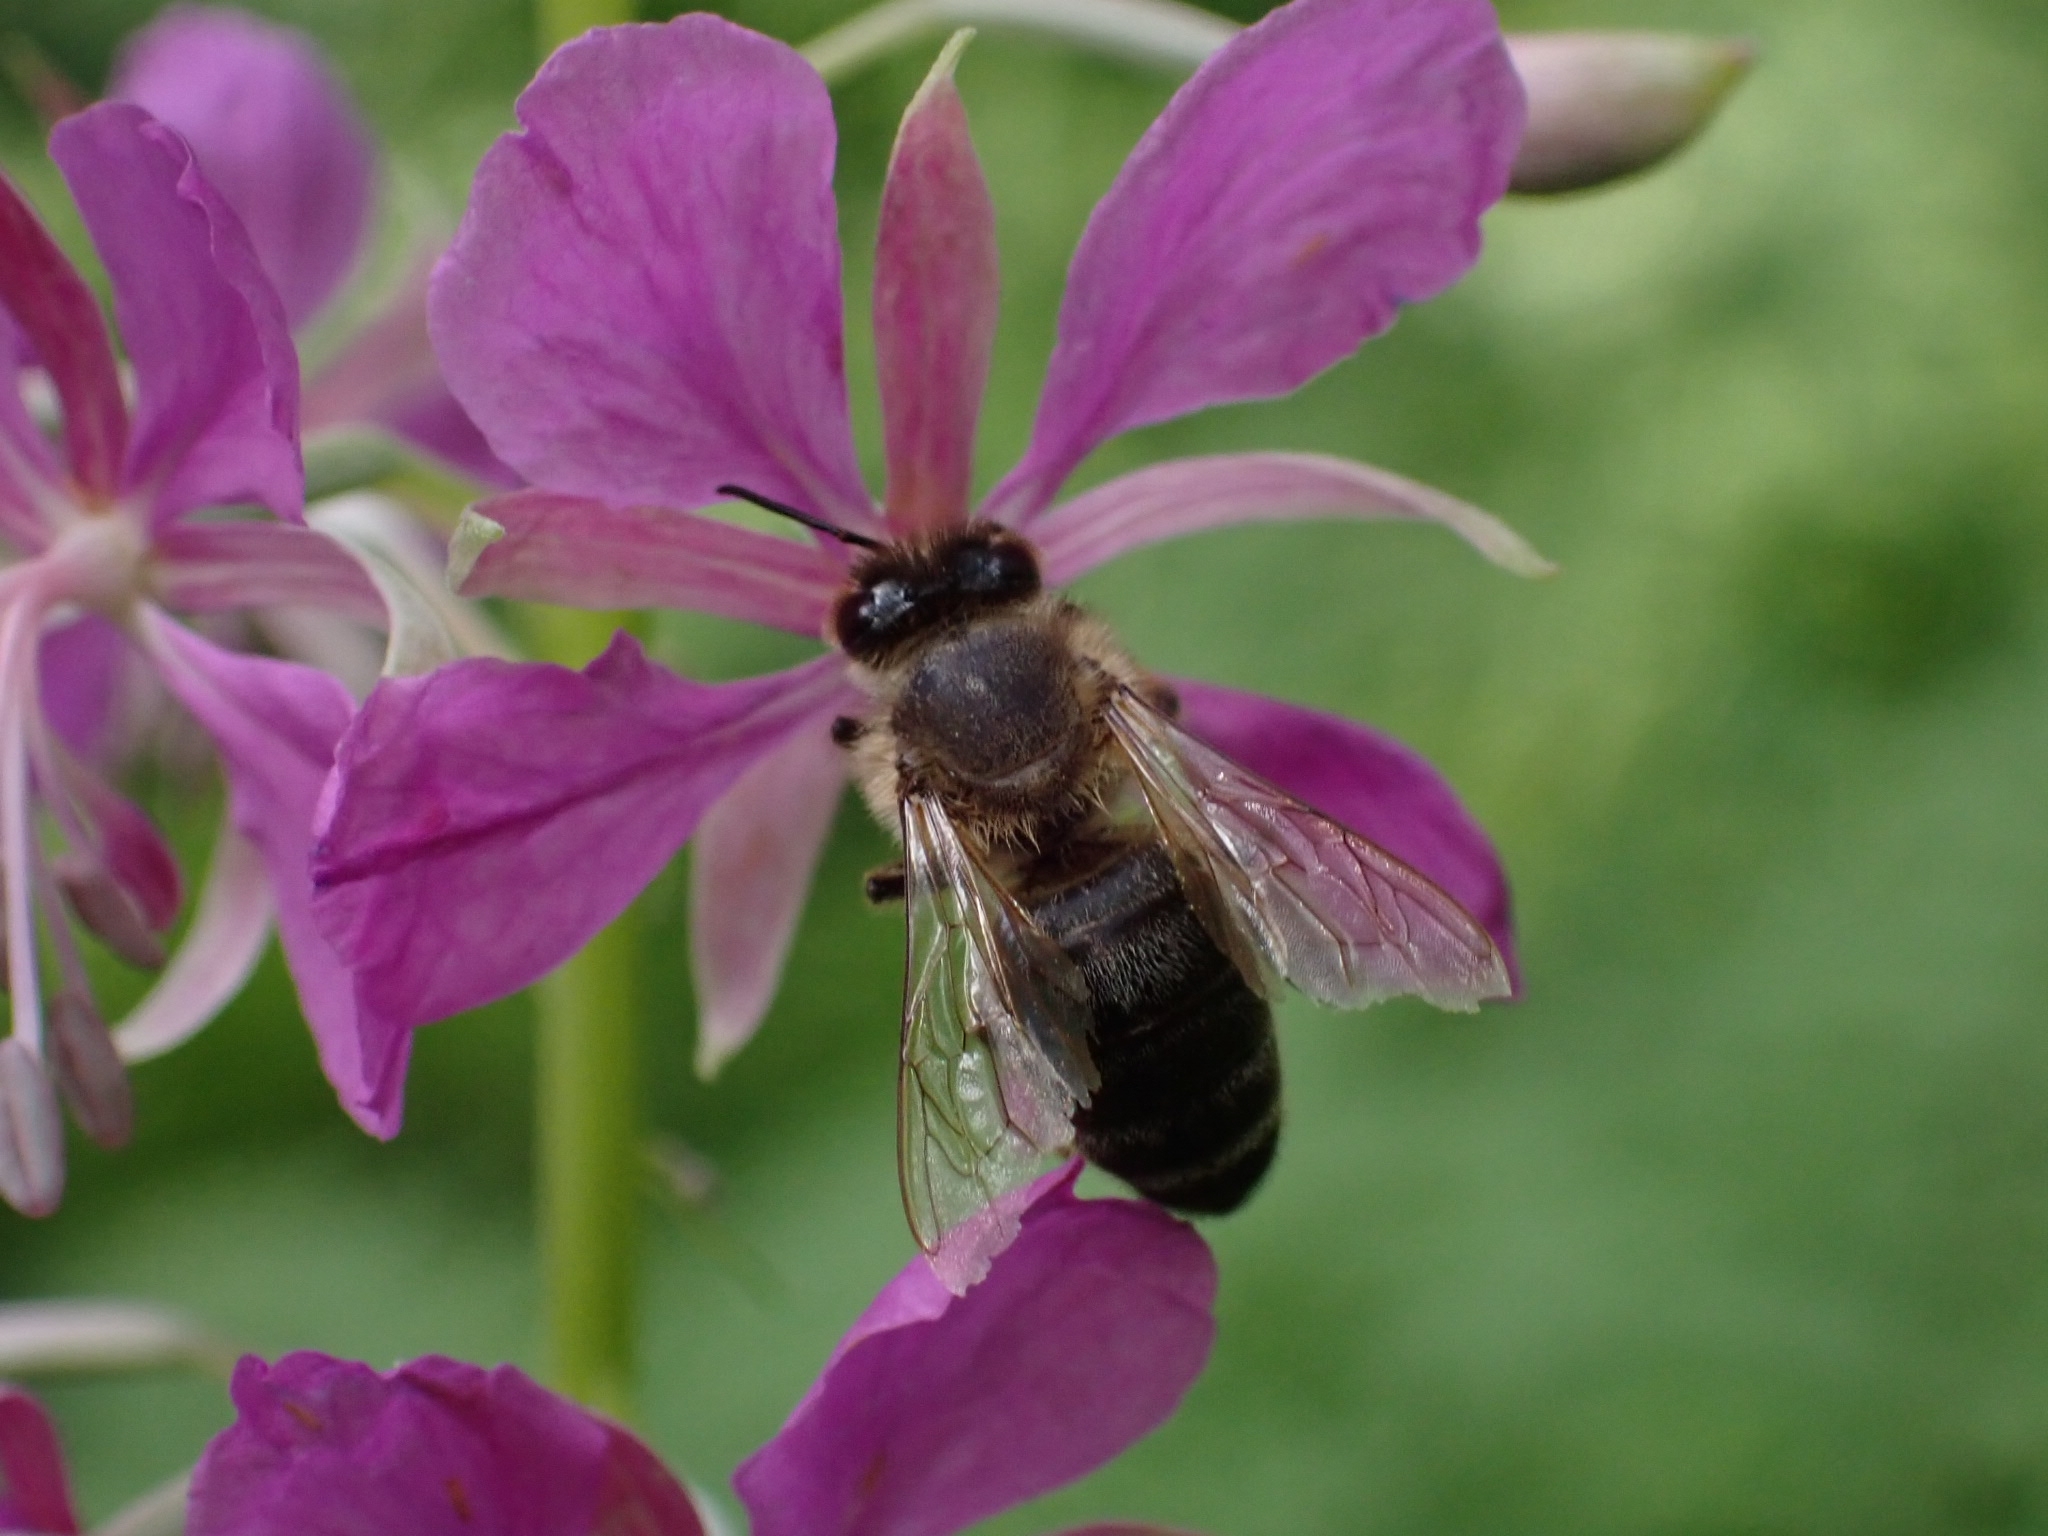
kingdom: Animalia
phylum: Arthropoda
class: Insecta
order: Hymenoptera
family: Apidae
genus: Apis
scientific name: Apis mellifera
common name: Honey bee
